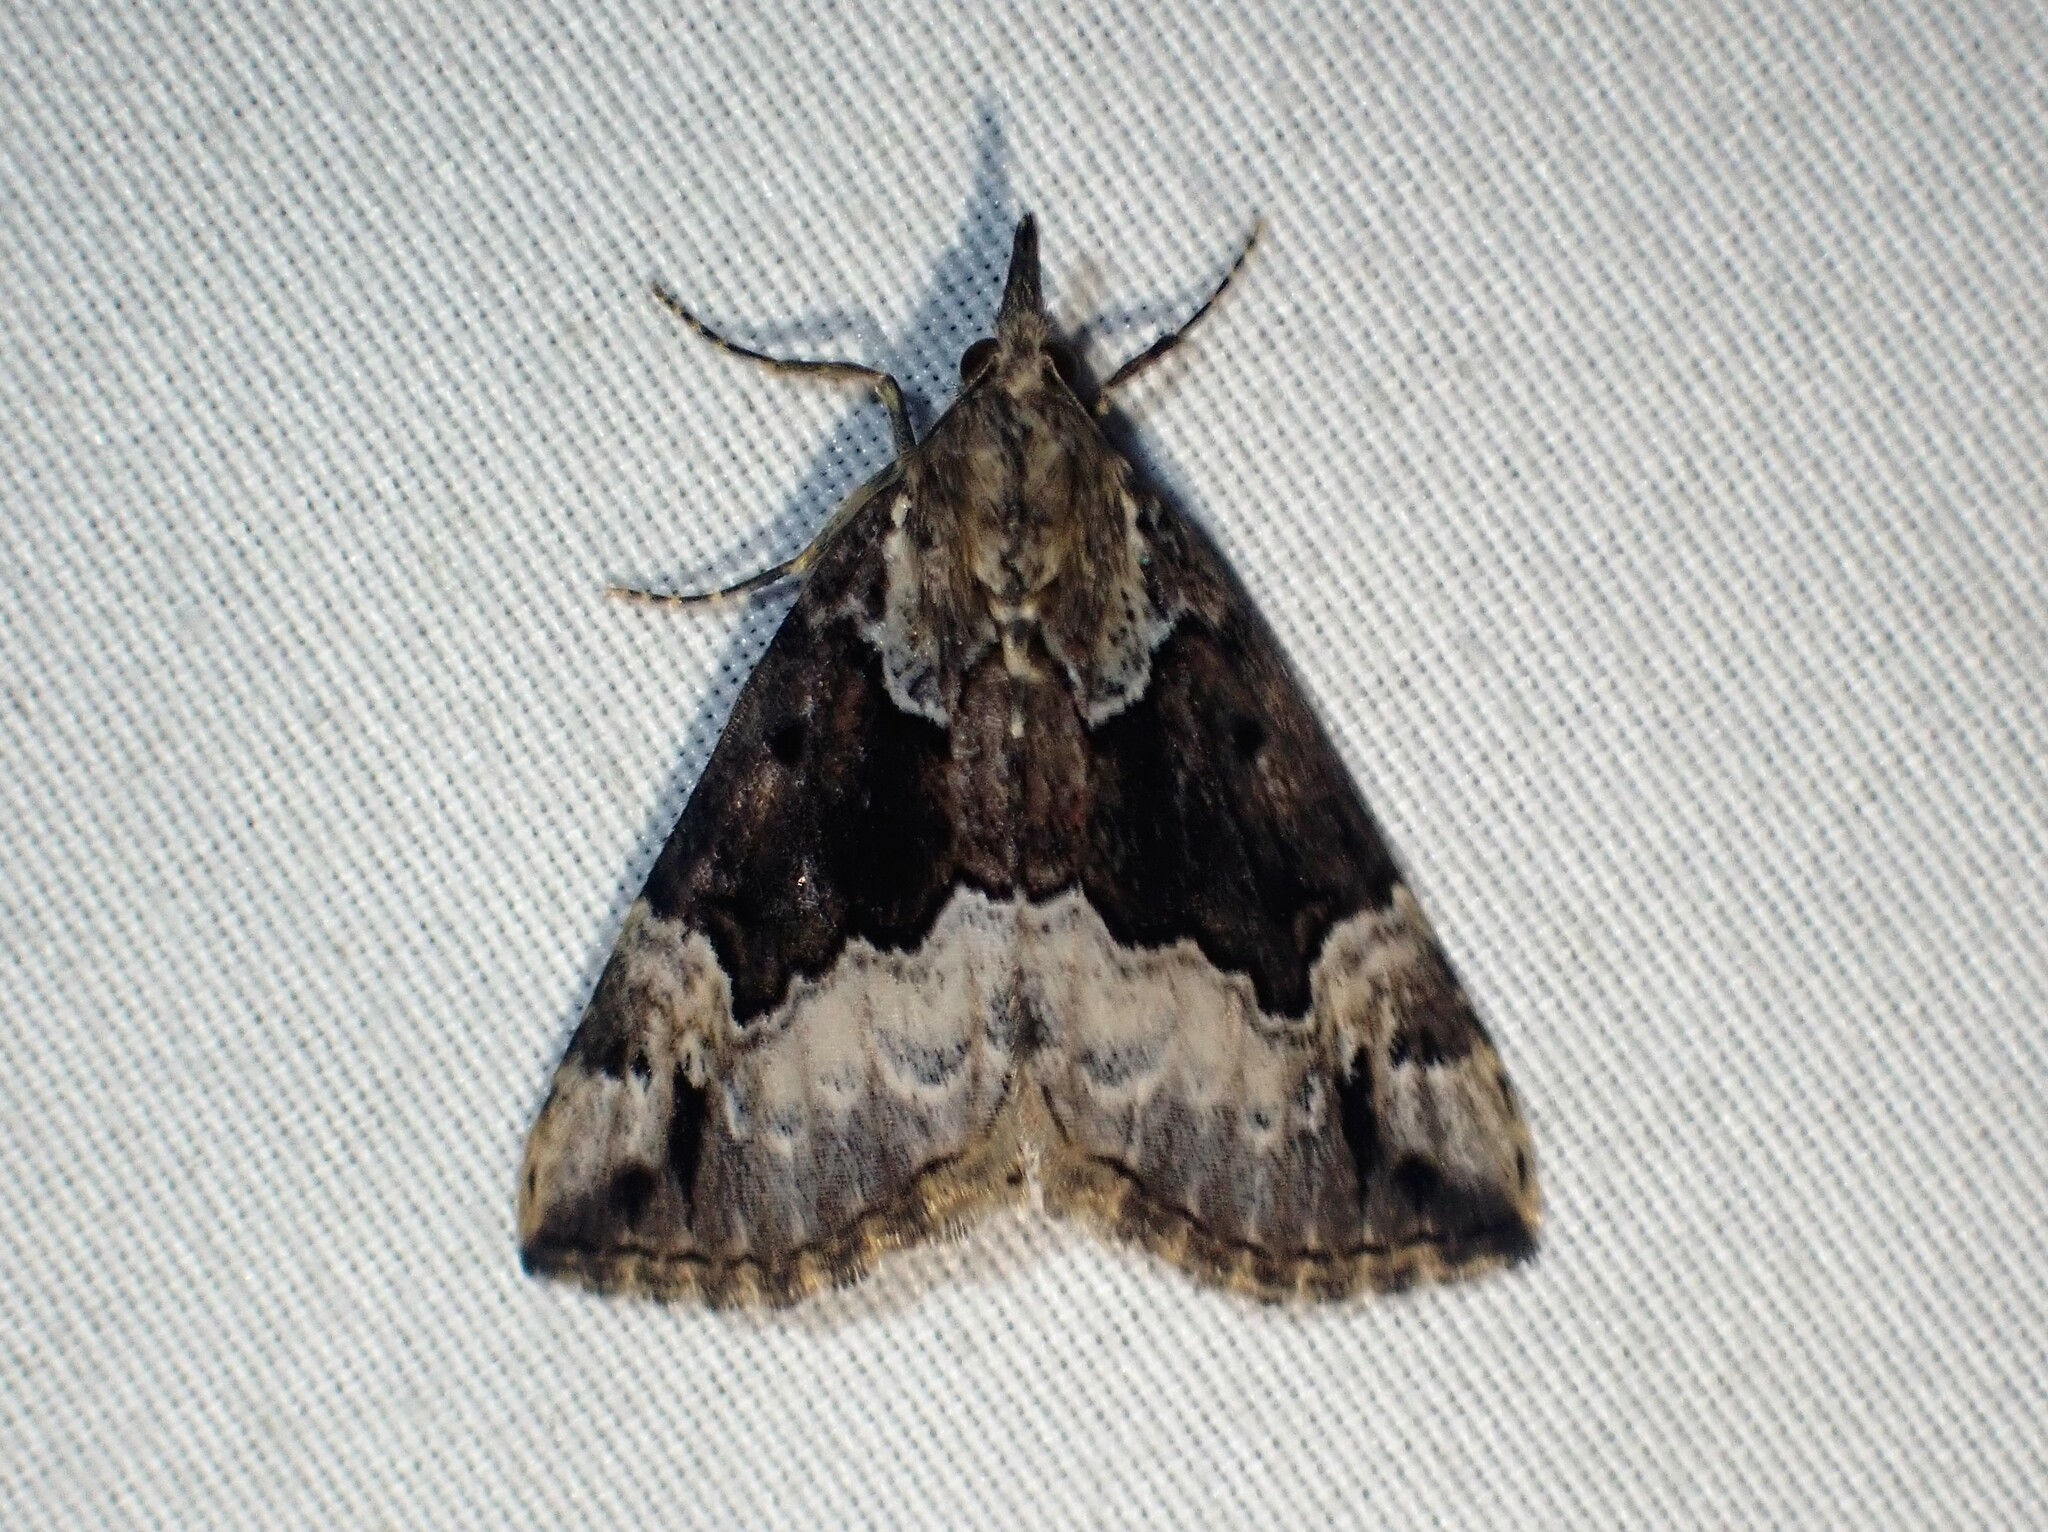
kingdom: Animalia
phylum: Arthropoda
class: Insecta
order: Lepidoptera
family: Erebidae
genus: Hypena
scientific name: Hypena palparia
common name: Mottled bomolocha moth
